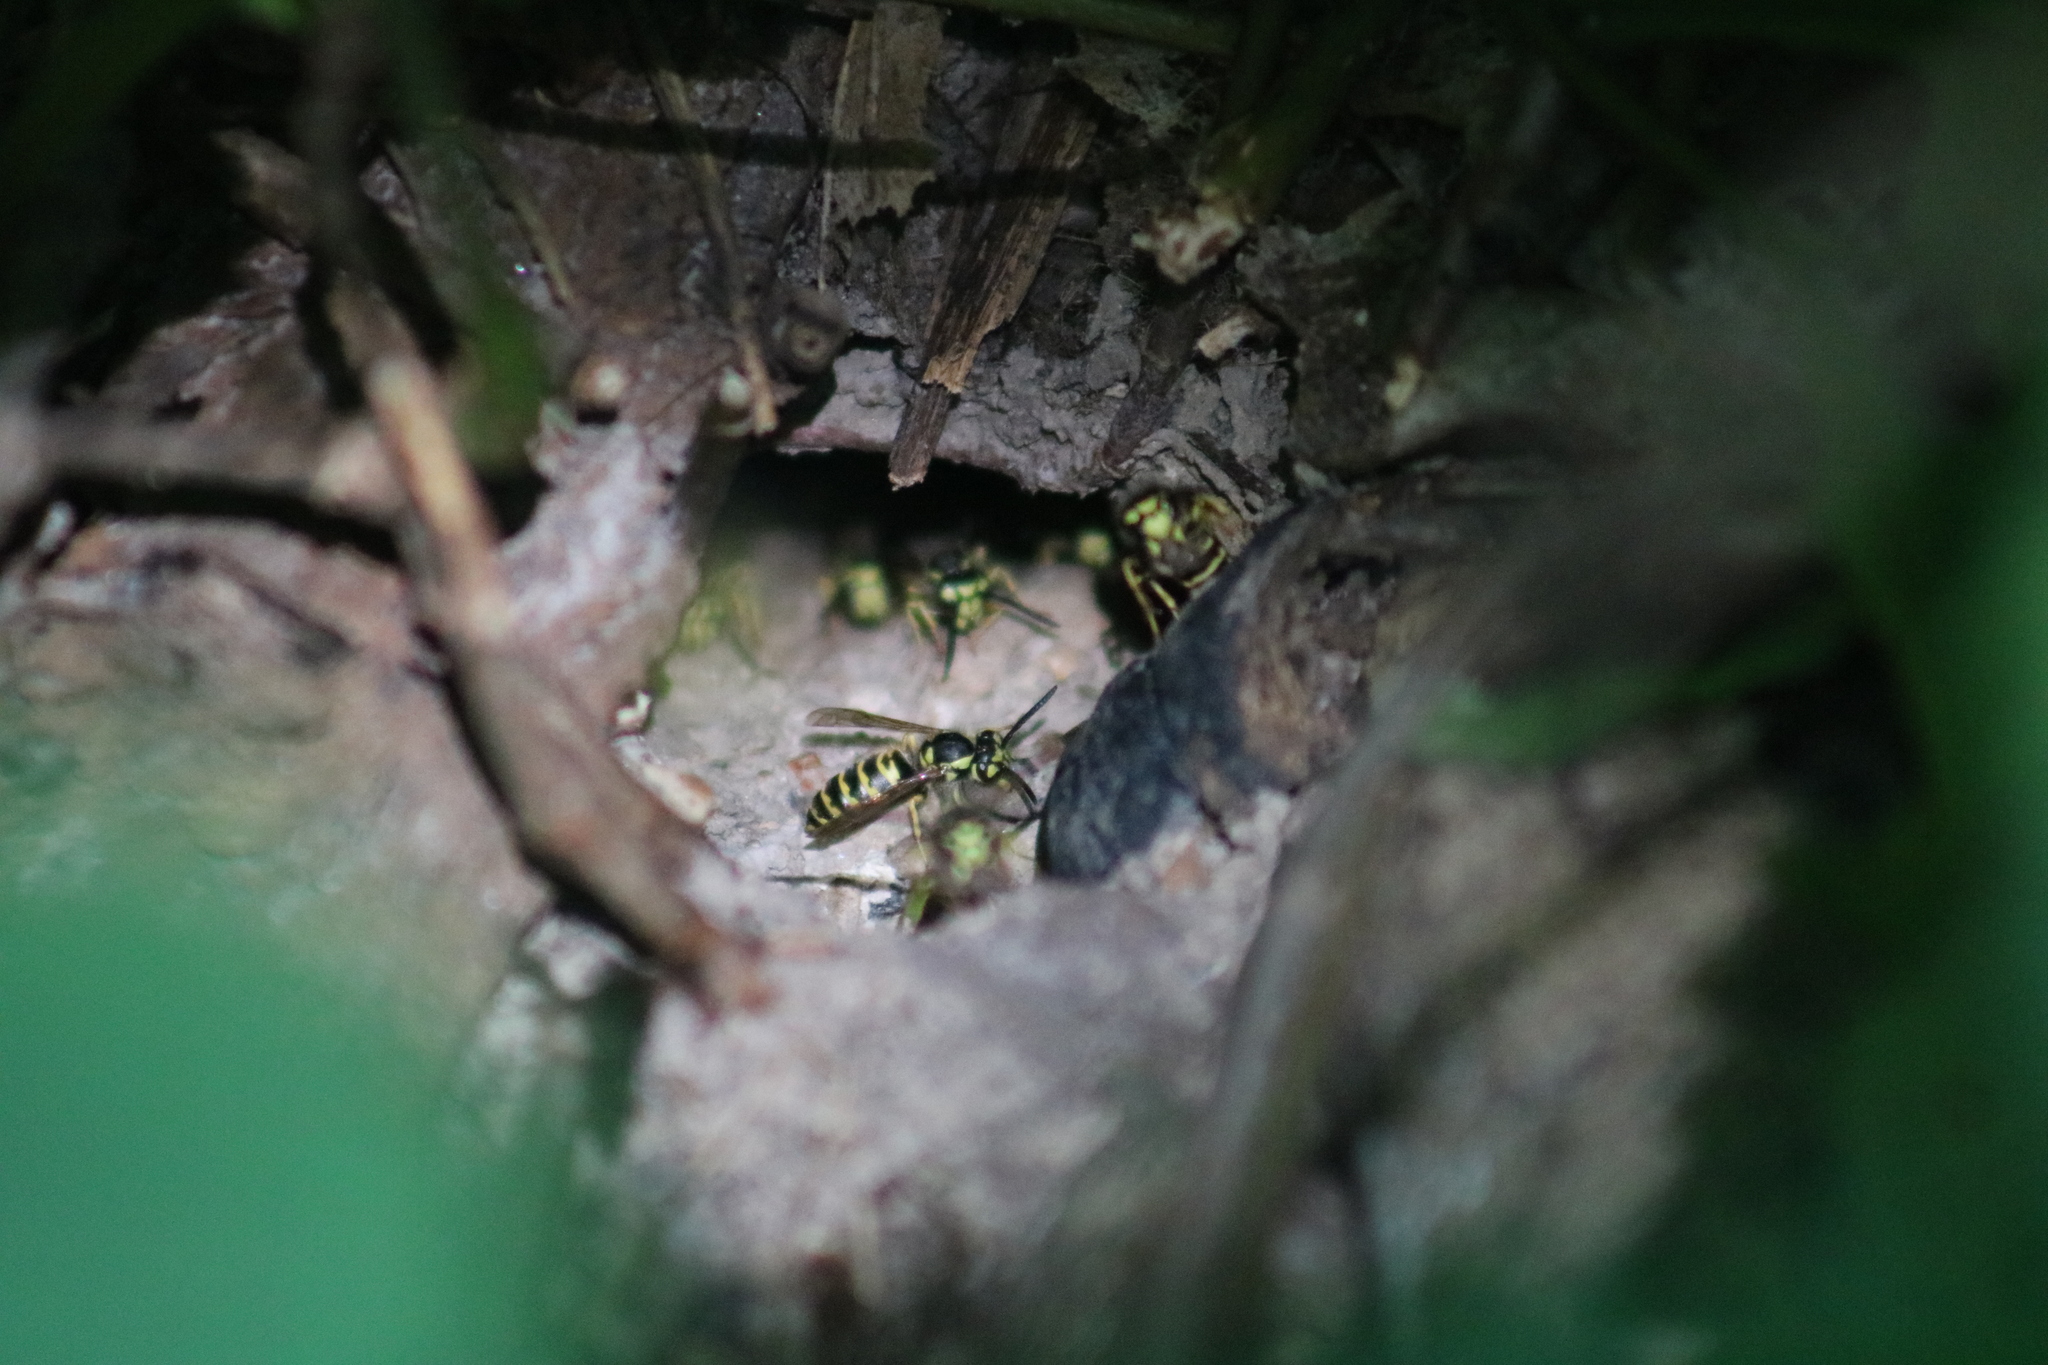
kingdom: Animalia
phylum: Arthropoda
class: Insecta
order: Hymenoptera
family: Vespidae
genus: Vespula
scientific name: Vespula maculifrons
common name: Eastern yellowjacket
